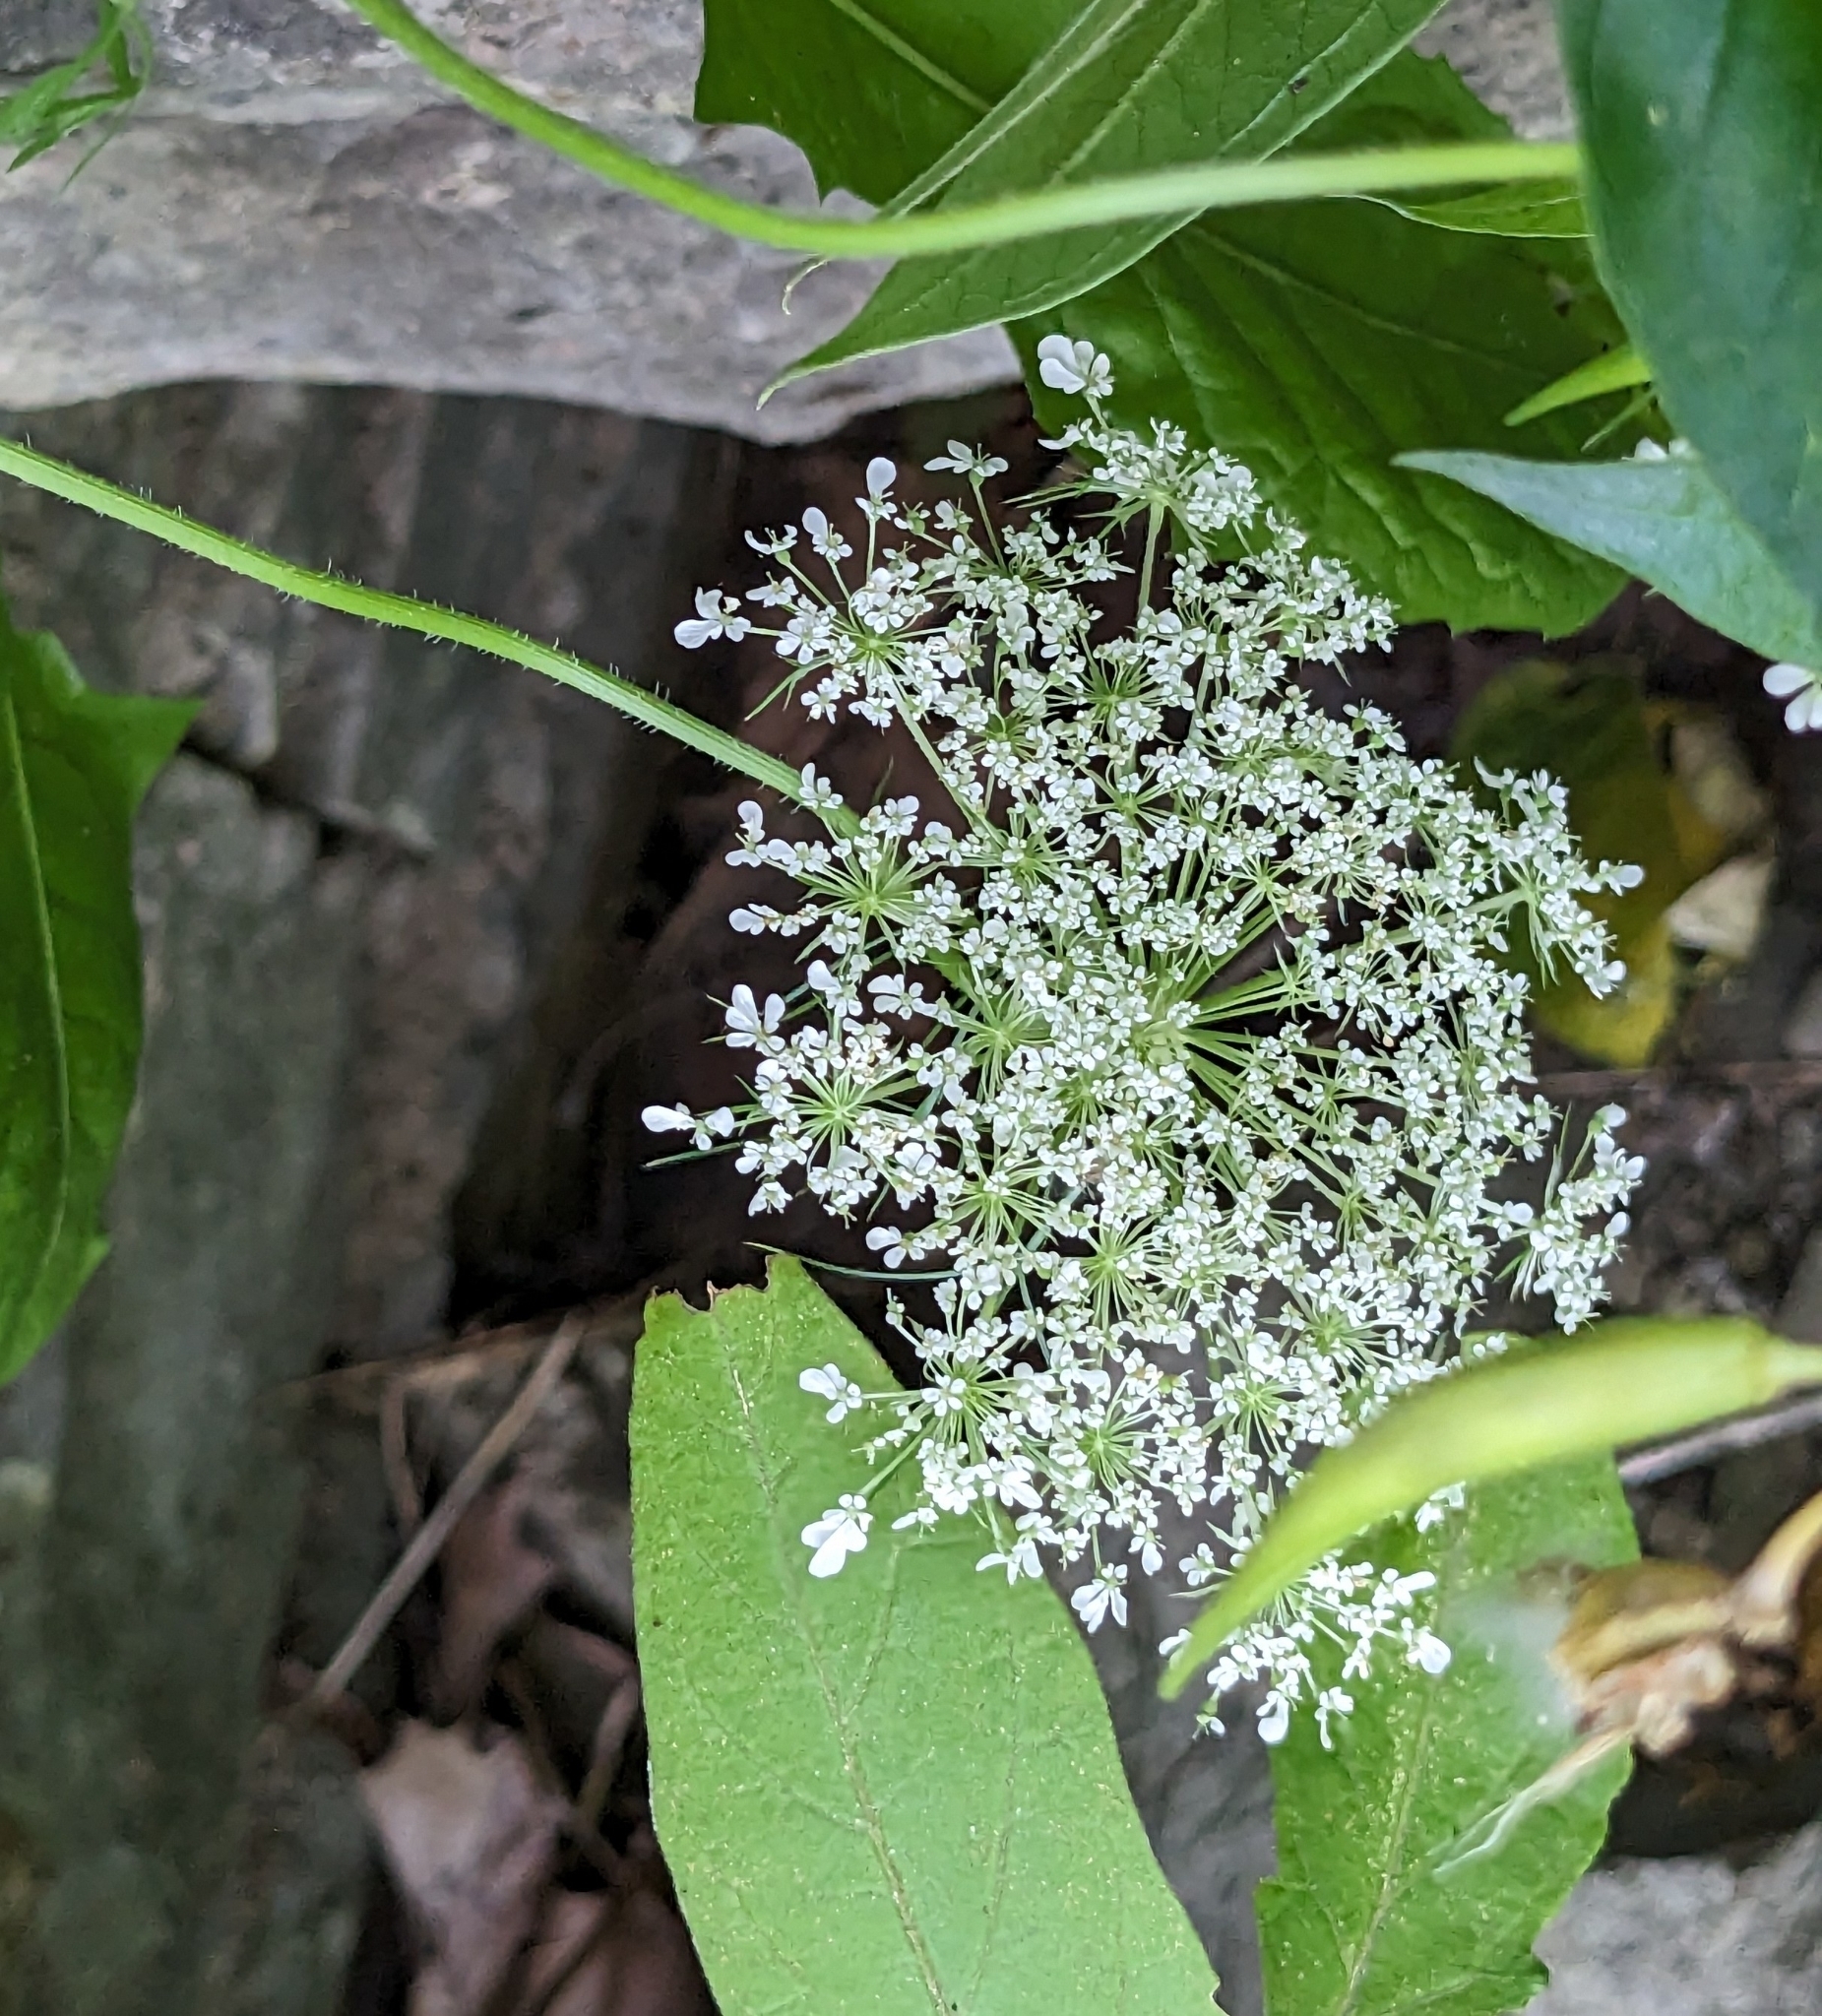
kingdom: Plantae
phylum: Tracheophyta
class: Magnoliopsida
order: Apiales
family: Apiaceae
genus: Daucus
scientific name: Daucus carota
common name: Wild carrot
